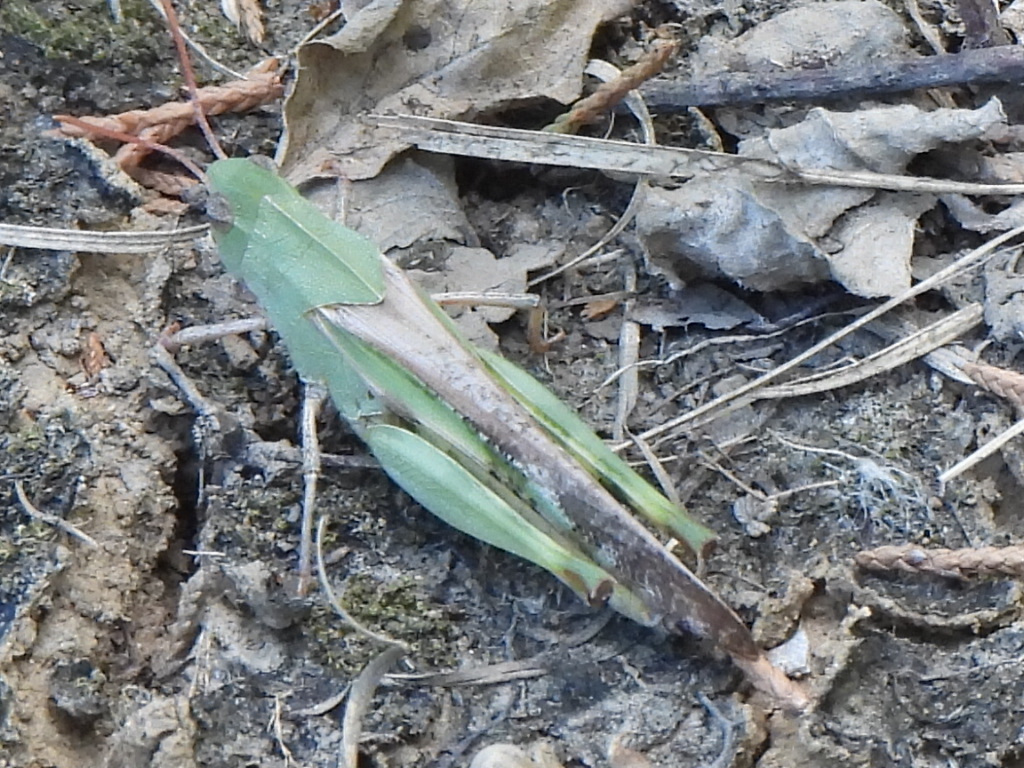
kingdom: Animalia
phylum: Arthropoda
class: Insecta
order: Orthoptera
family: Acrididae
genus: Chortophaga
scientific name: Chortophaga viridifasciata
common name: Green-striped grasshopper
